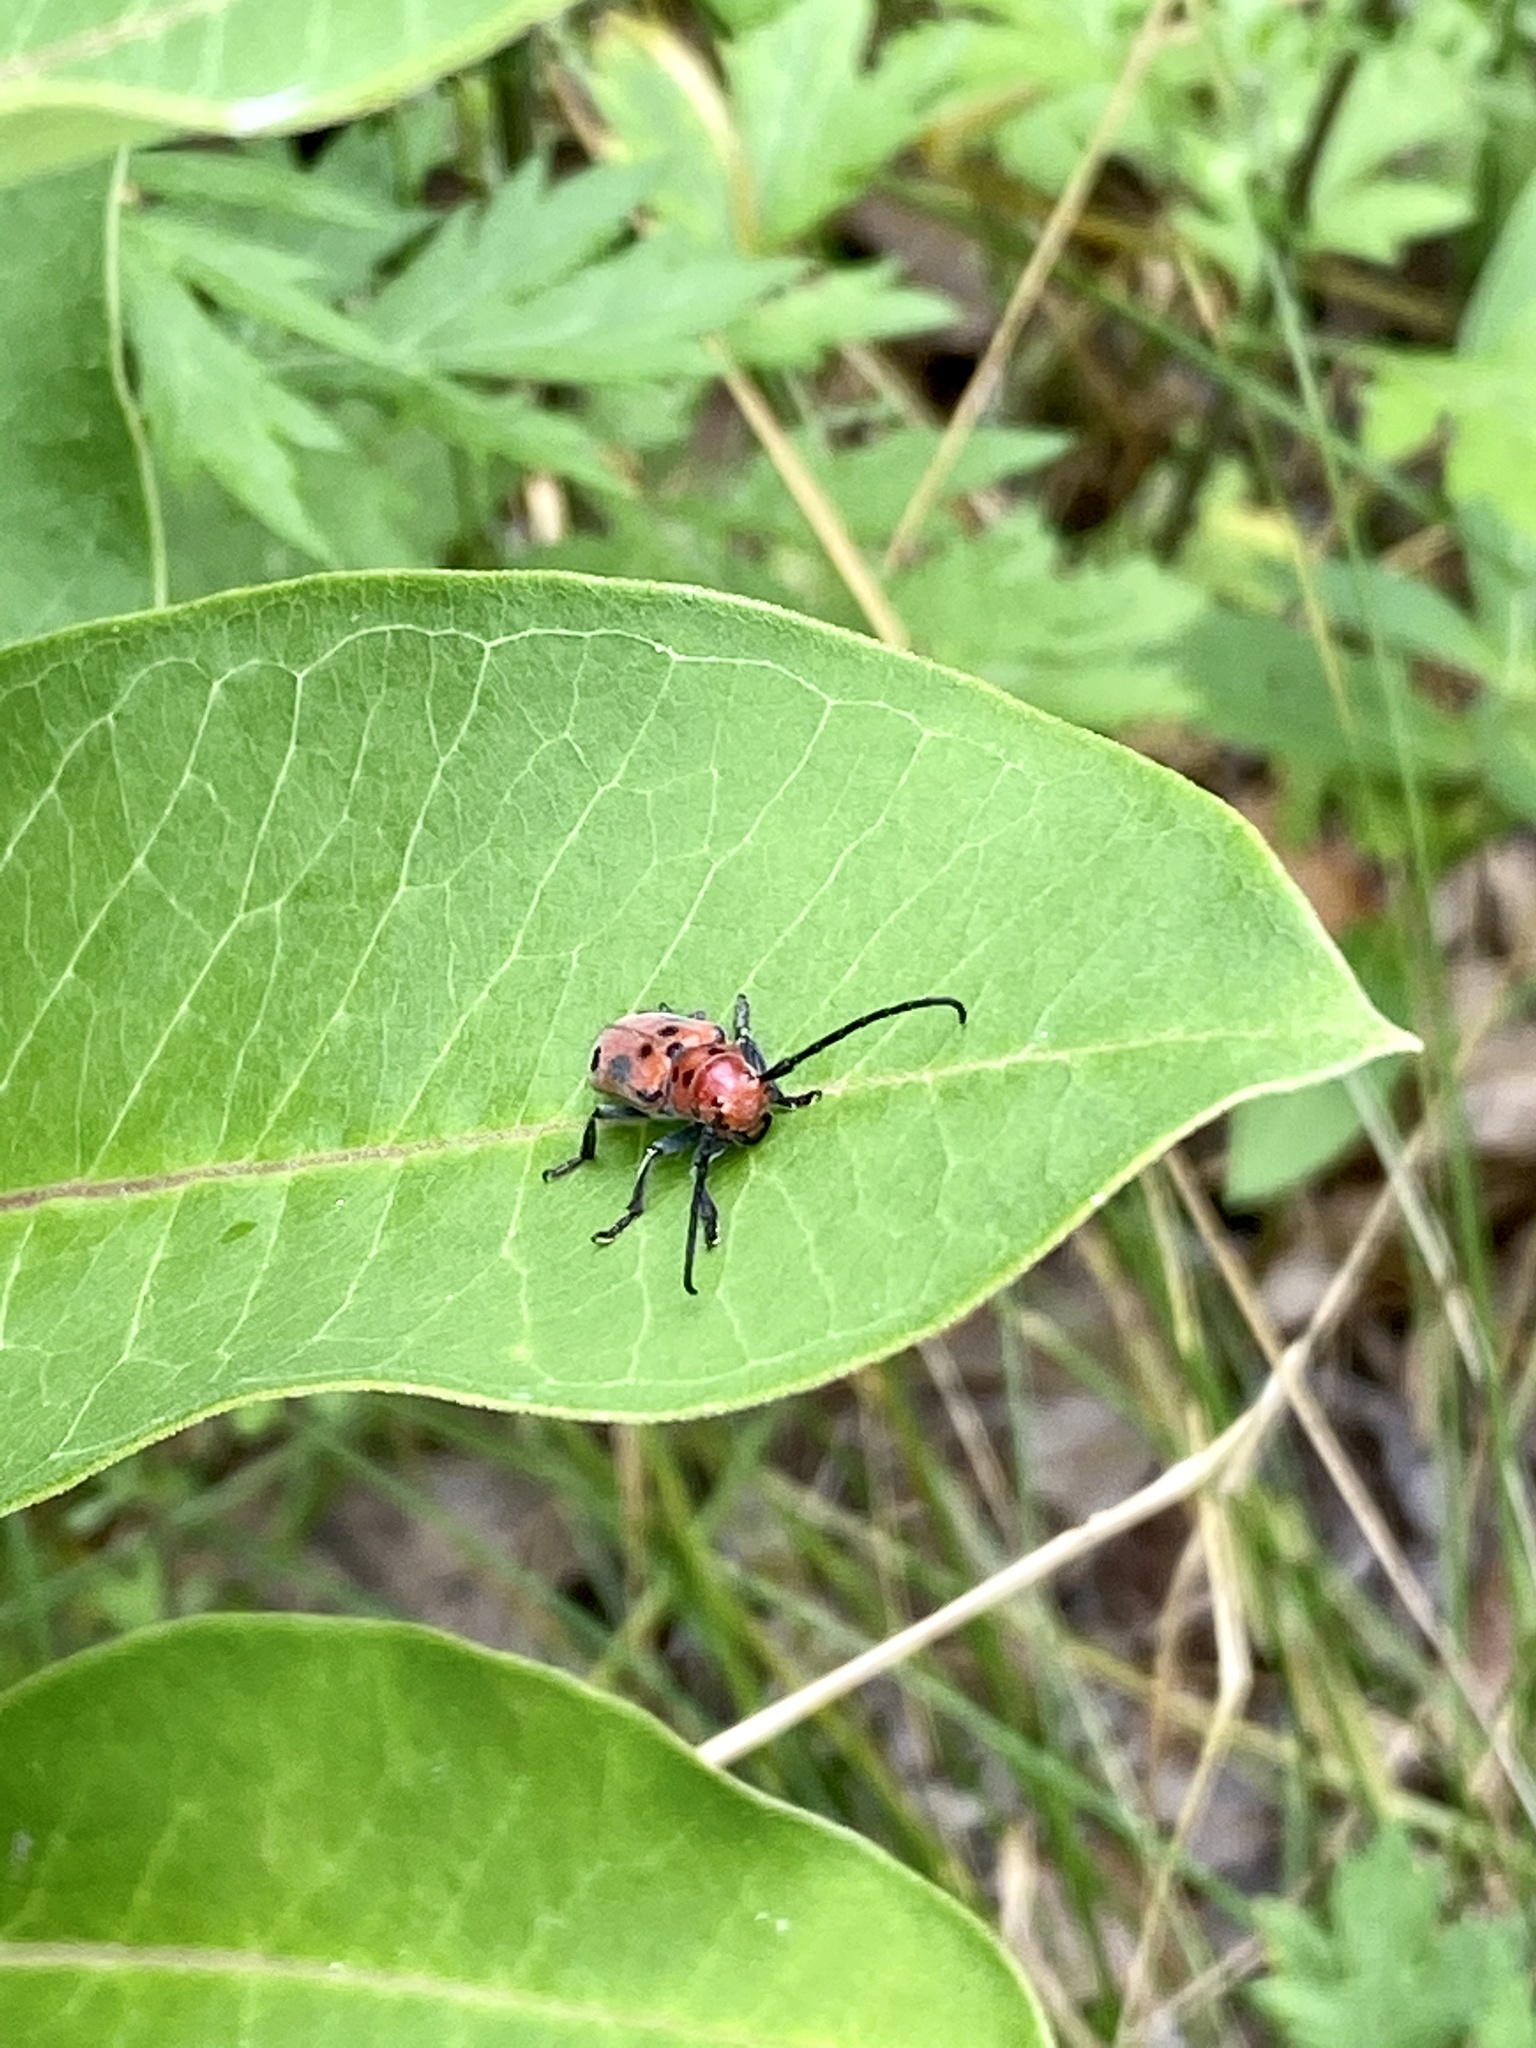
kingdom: Animalia
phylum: Arthropoda
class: Insecta
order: Coleoptera
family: Cerambycidae
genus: Tetraopes
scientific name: Tetraopes tetrophthalmus
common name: Red milkweed beetle
